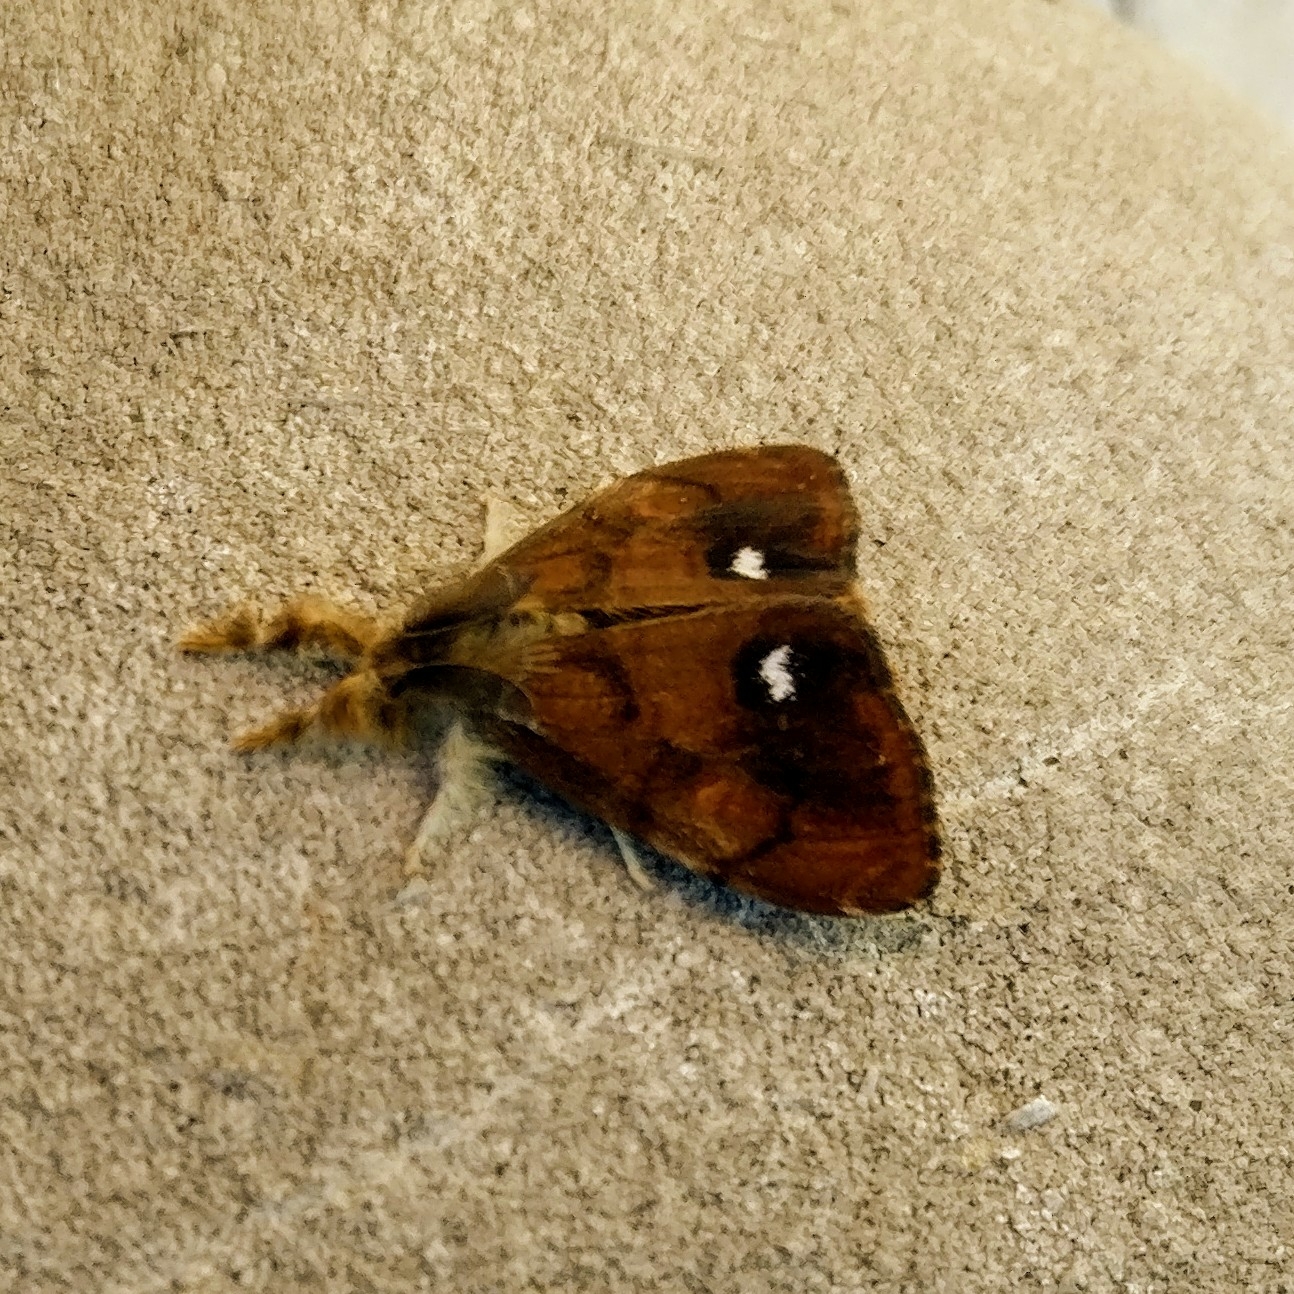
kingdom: Animalia
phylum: Arthropoda
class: Insecta
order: Lepidoptera
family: Erebidae
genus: Orgyia
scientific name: Orgyia antiqua
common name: Vapourer
